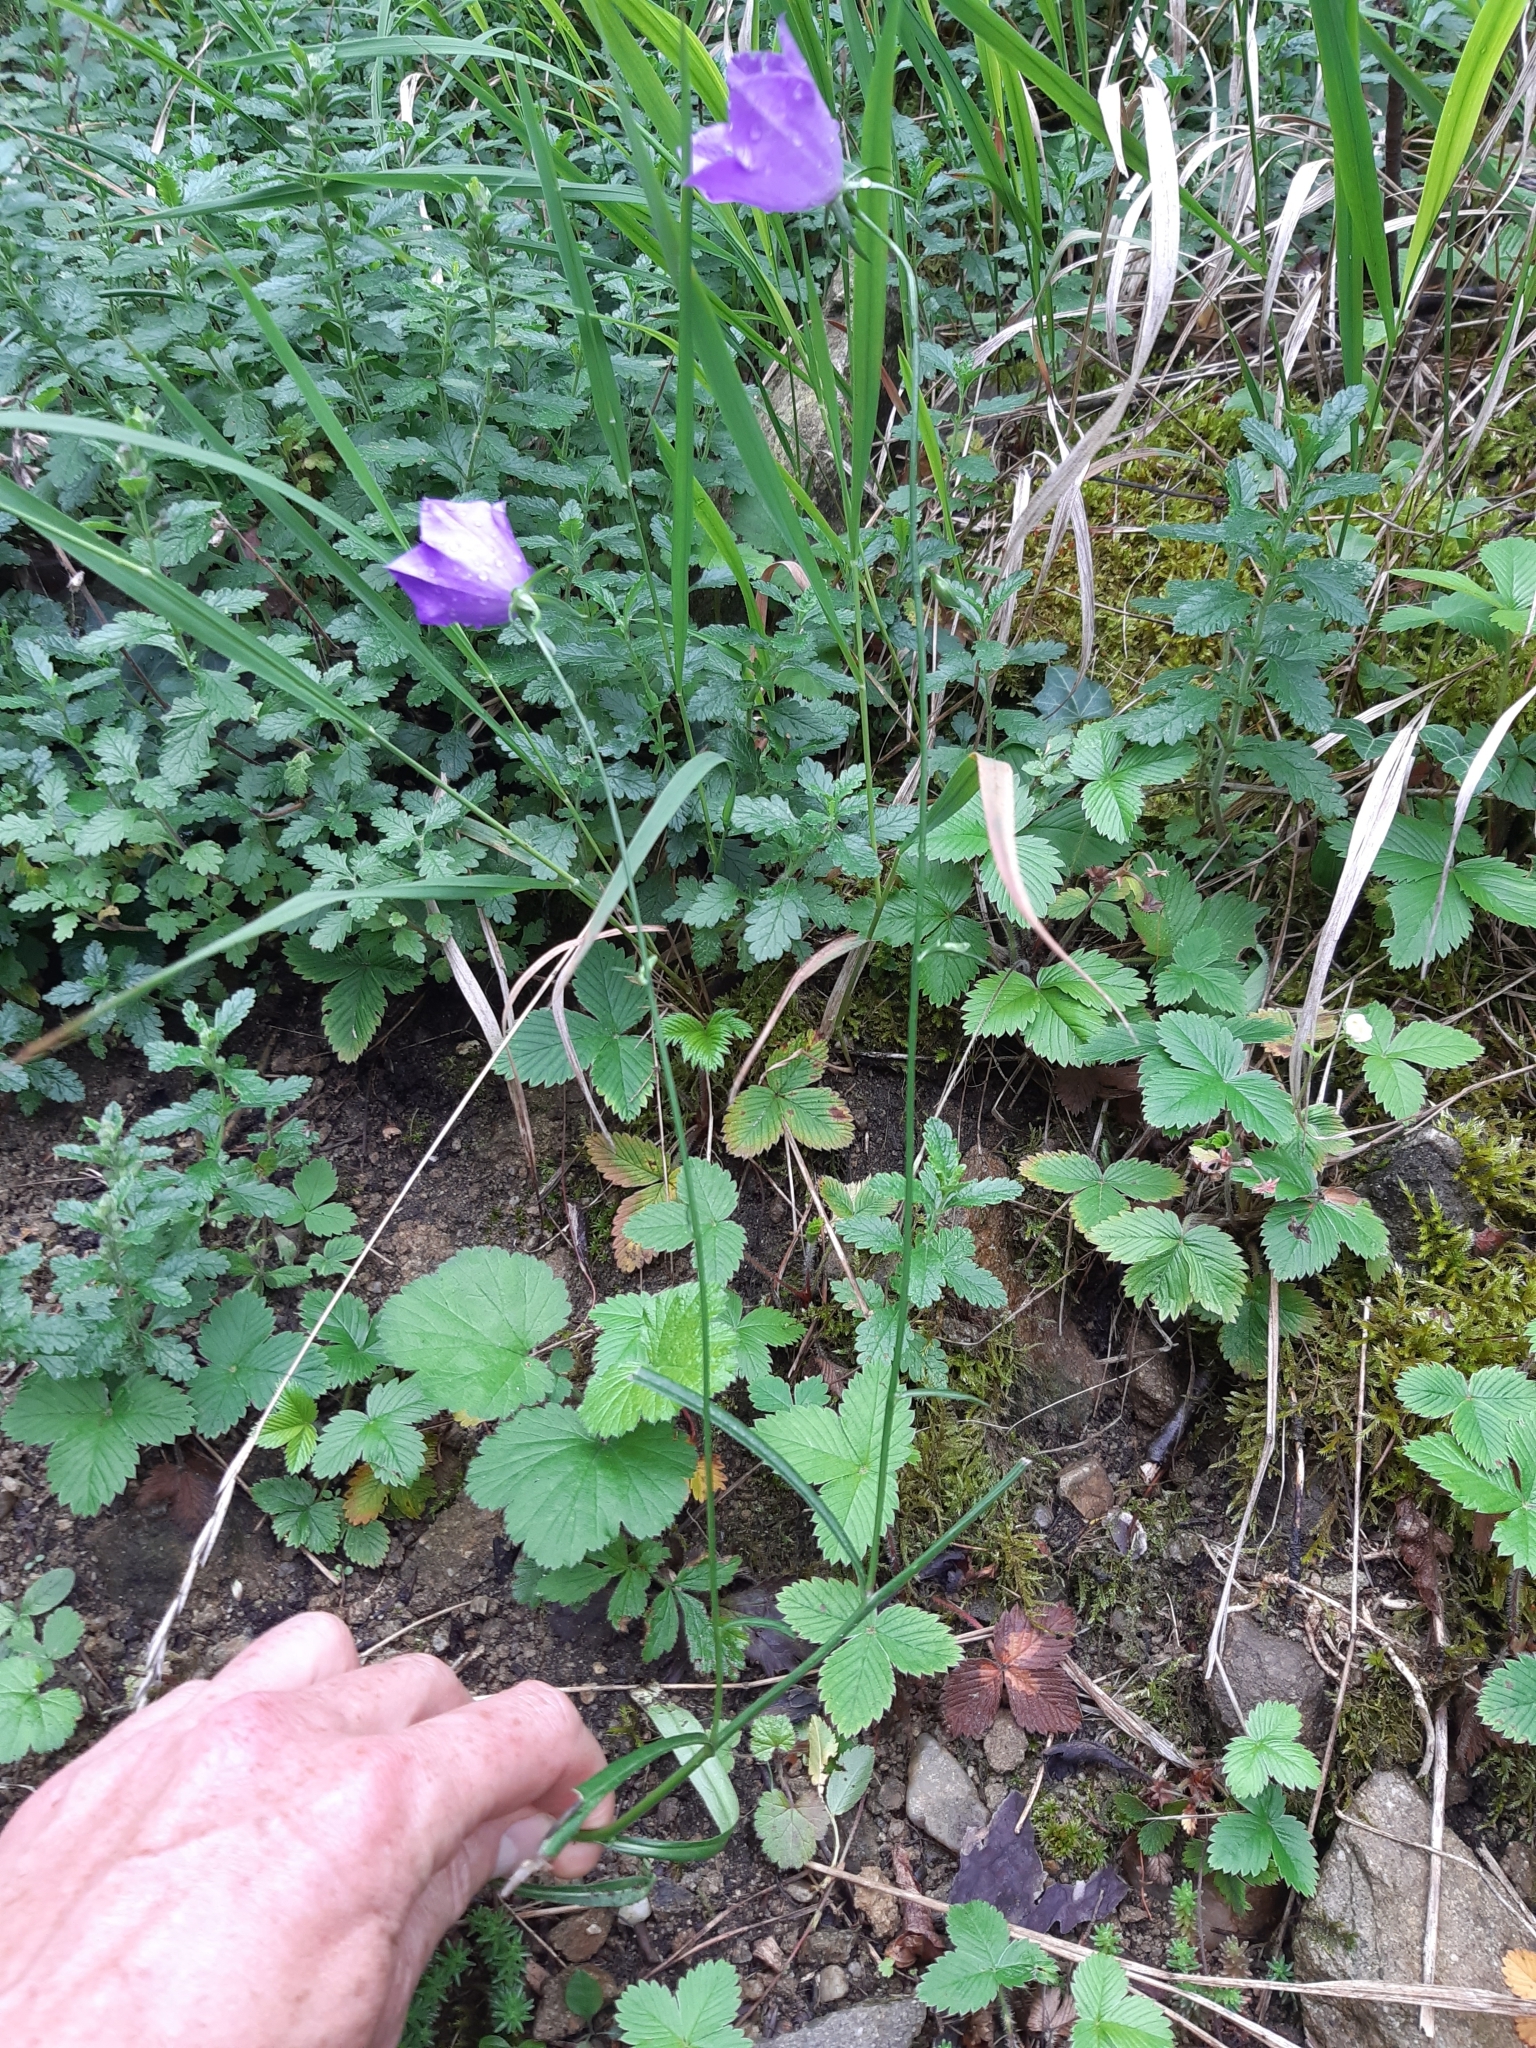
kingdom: Plantae
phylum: Tracheophyta
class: Magnoliopsida
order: Asterales
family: Campanulaceae
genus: Campanula
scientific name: Campanula persicifolia
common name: Peach-leaved bellflower
